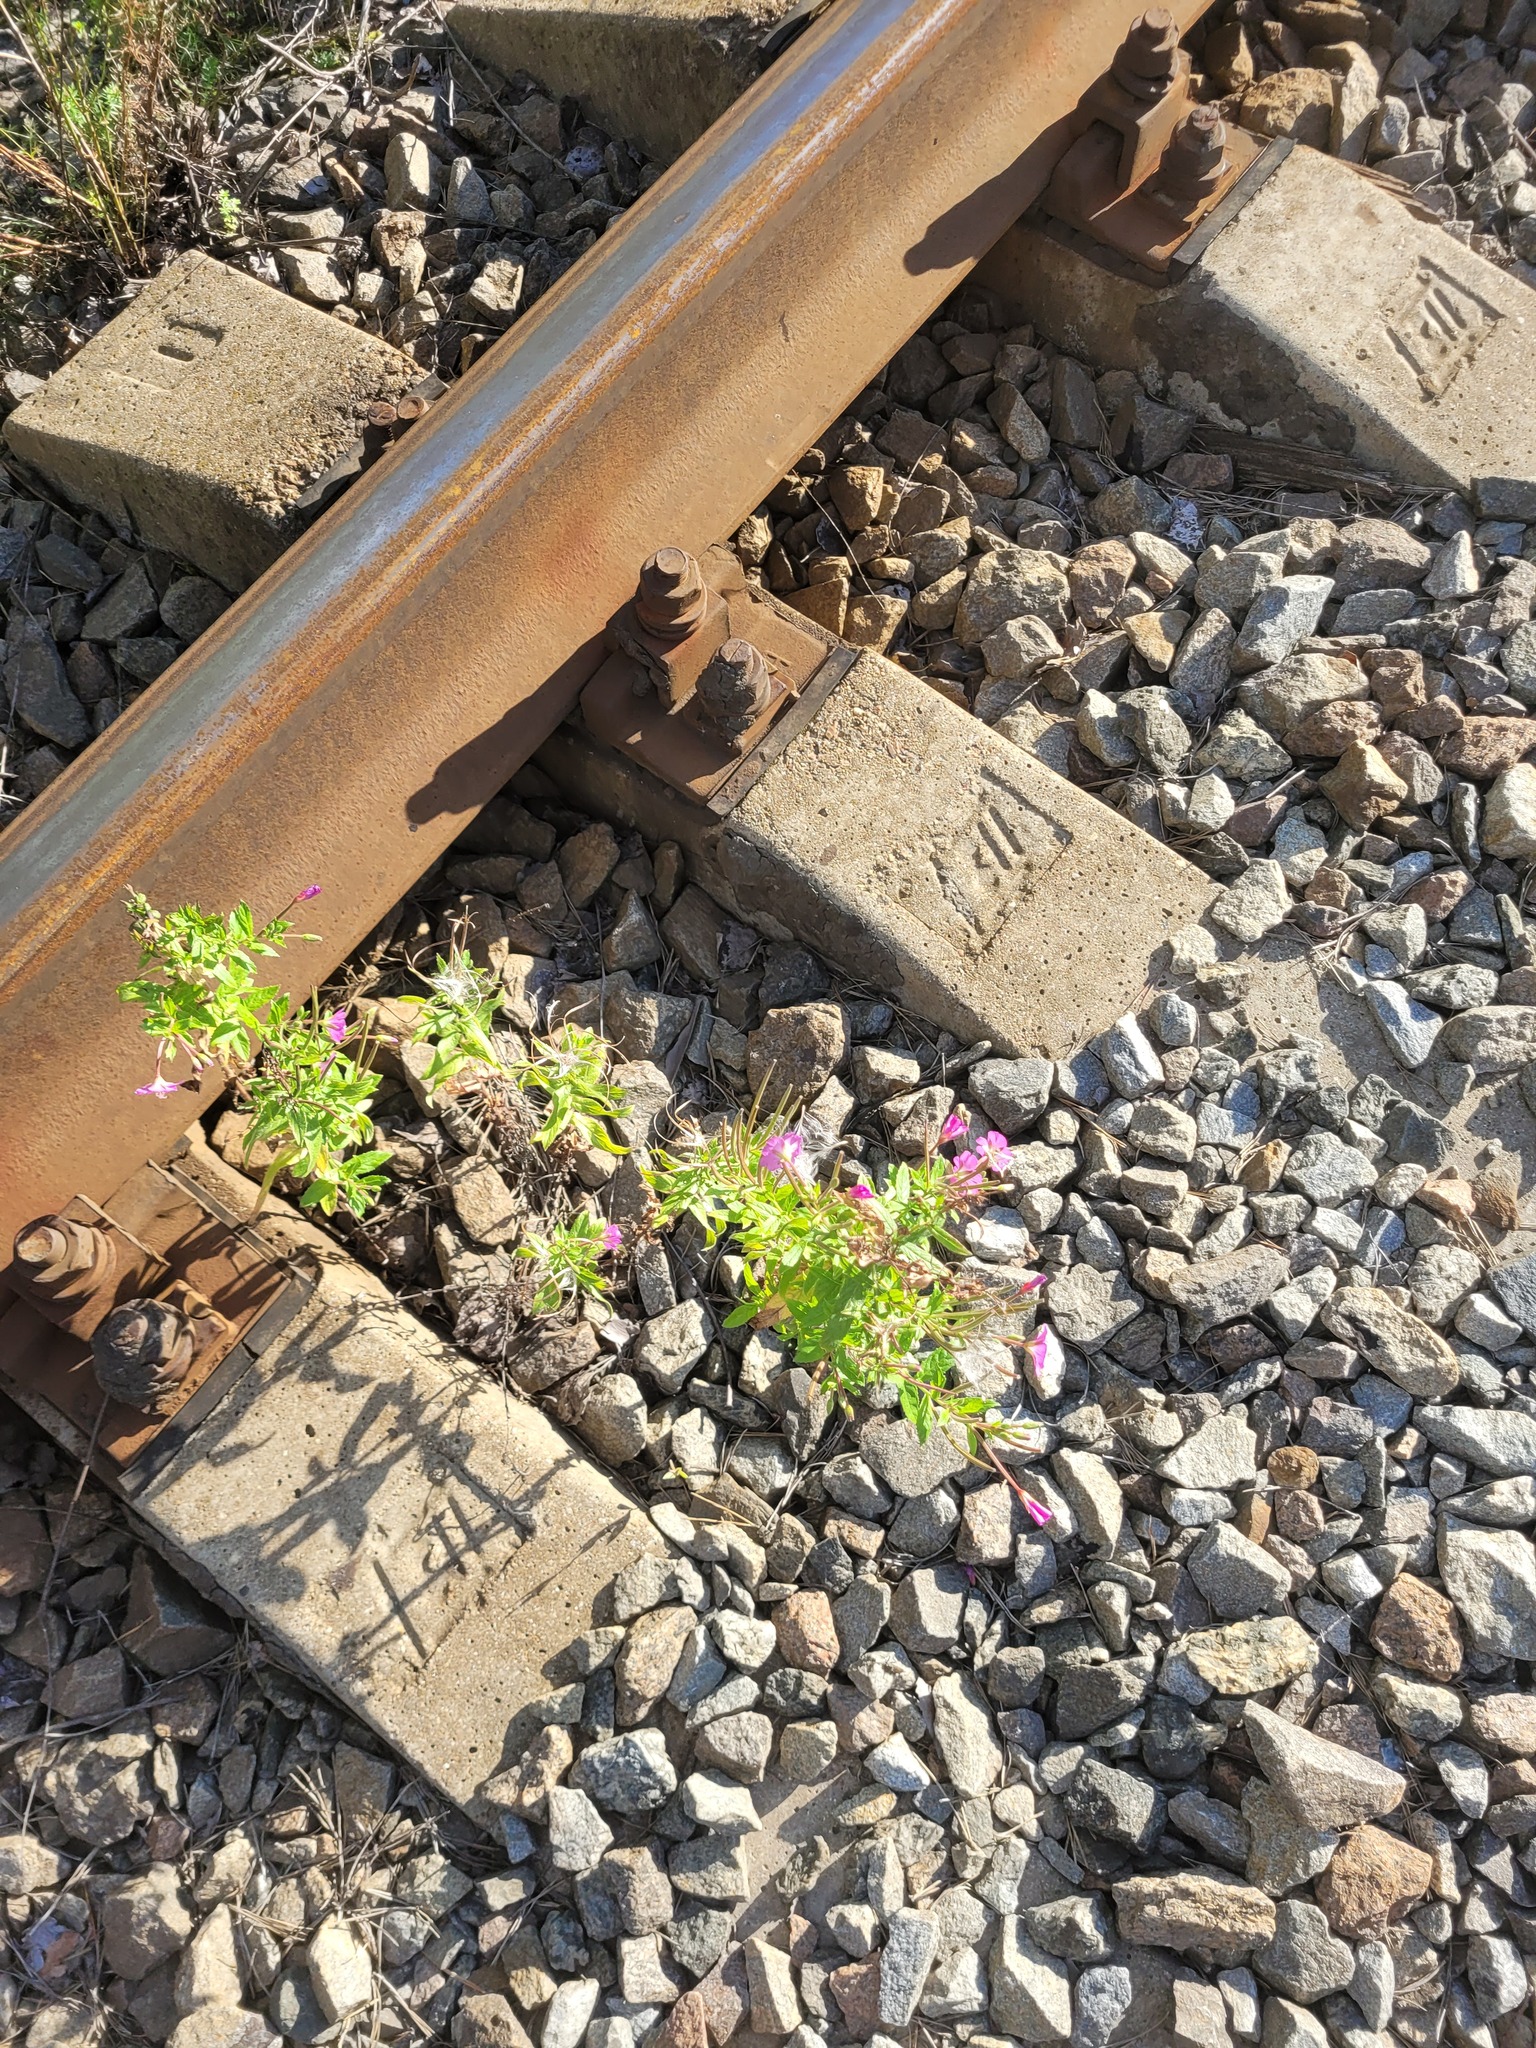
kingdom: Plantae
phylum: Tracheophyta
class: Magnoliopsida
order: Myrtales
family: Onagraceae
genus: Epilobium
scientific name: Epilobium hirsutum
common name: Great willowherb
